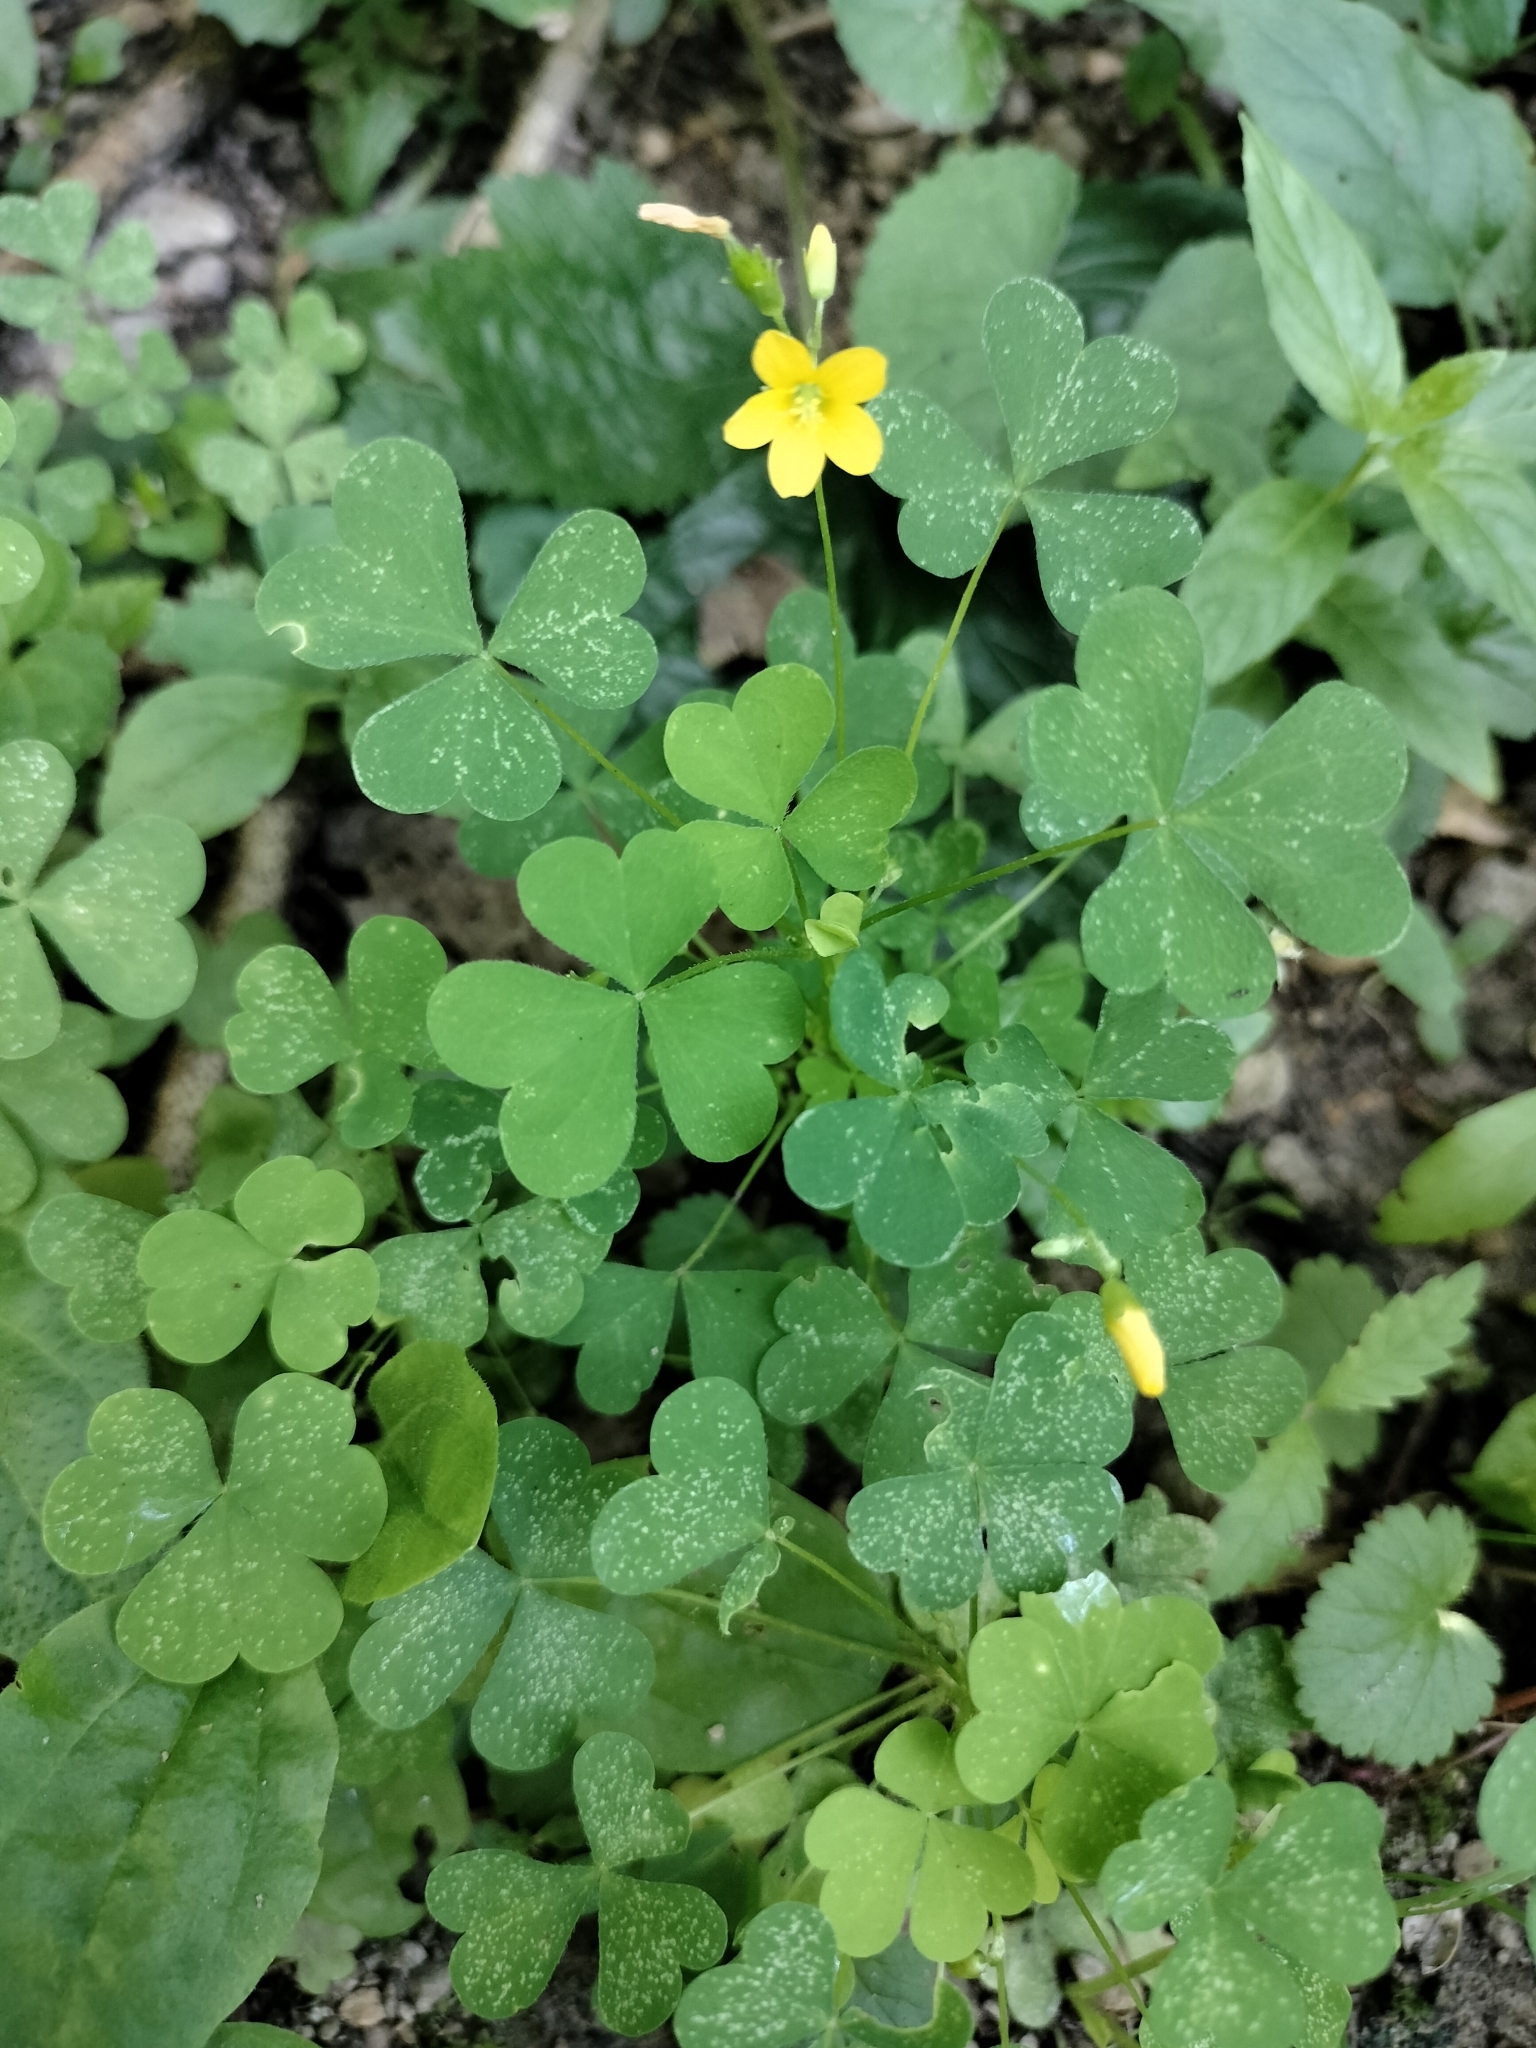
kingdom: Plantae
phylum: Tracheophyta
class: Magnoliopsida
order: Oxalidales
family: Oxalidaceae
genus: Oxalis
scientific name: Oxalis stricta
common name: Upright yellow-sorrel
